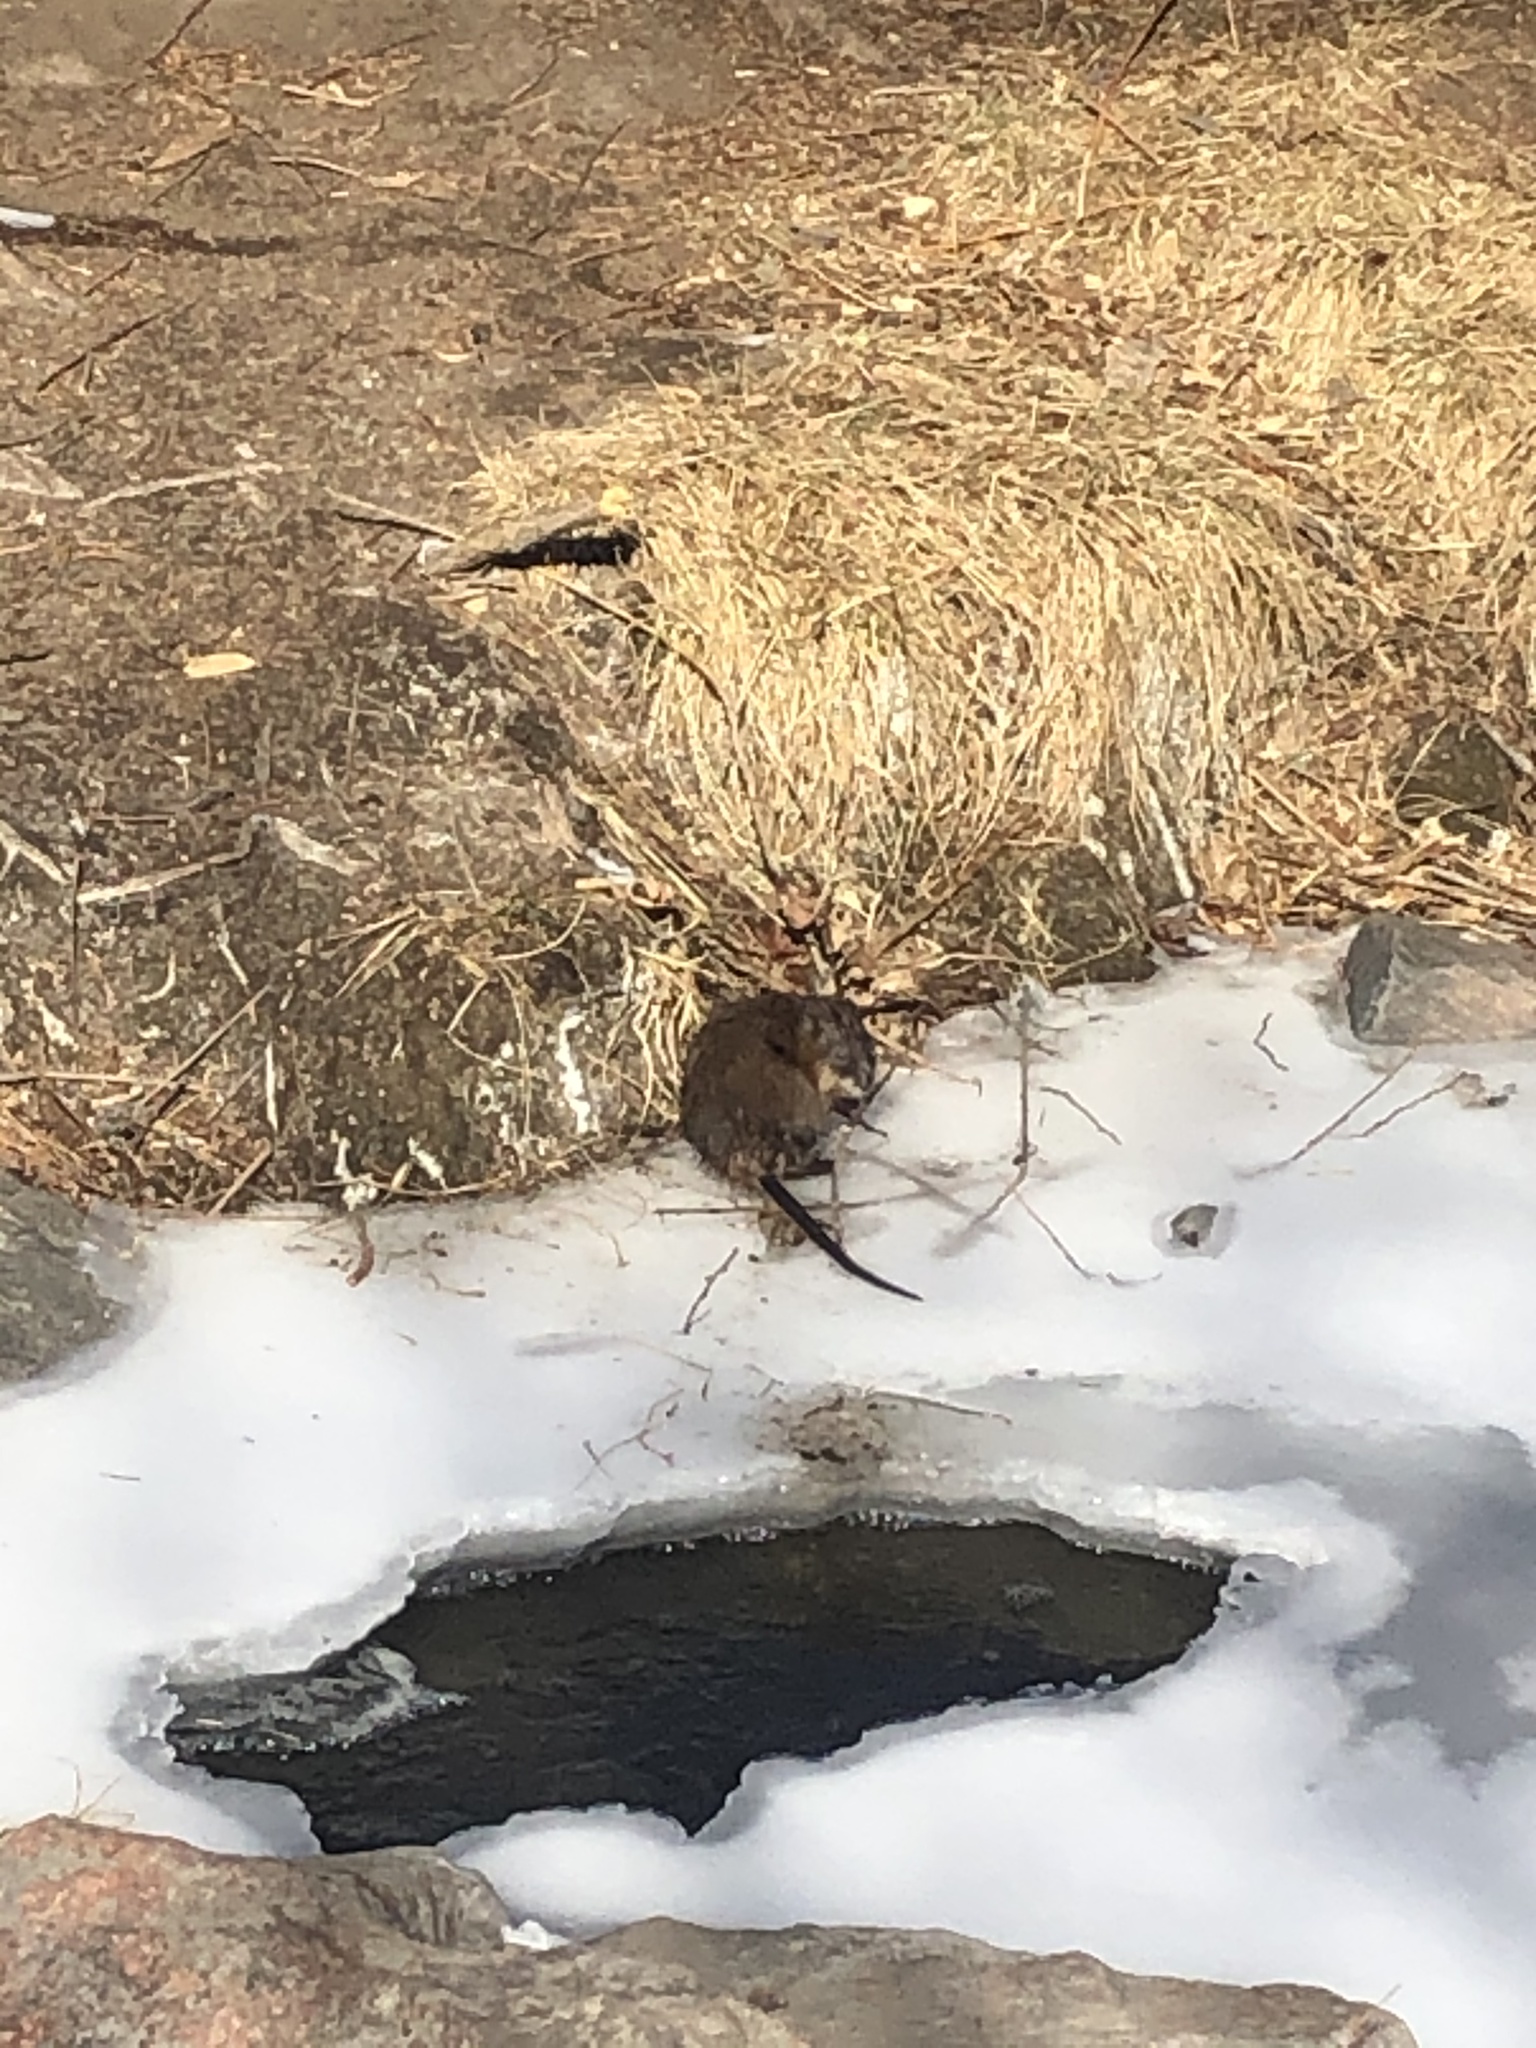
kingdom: Animalia
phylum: Chordata
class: Mammalia
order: Rodentia
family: Cricetidae
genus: Ondatra
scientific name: Ondatra zibethicus
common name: Muskrat
